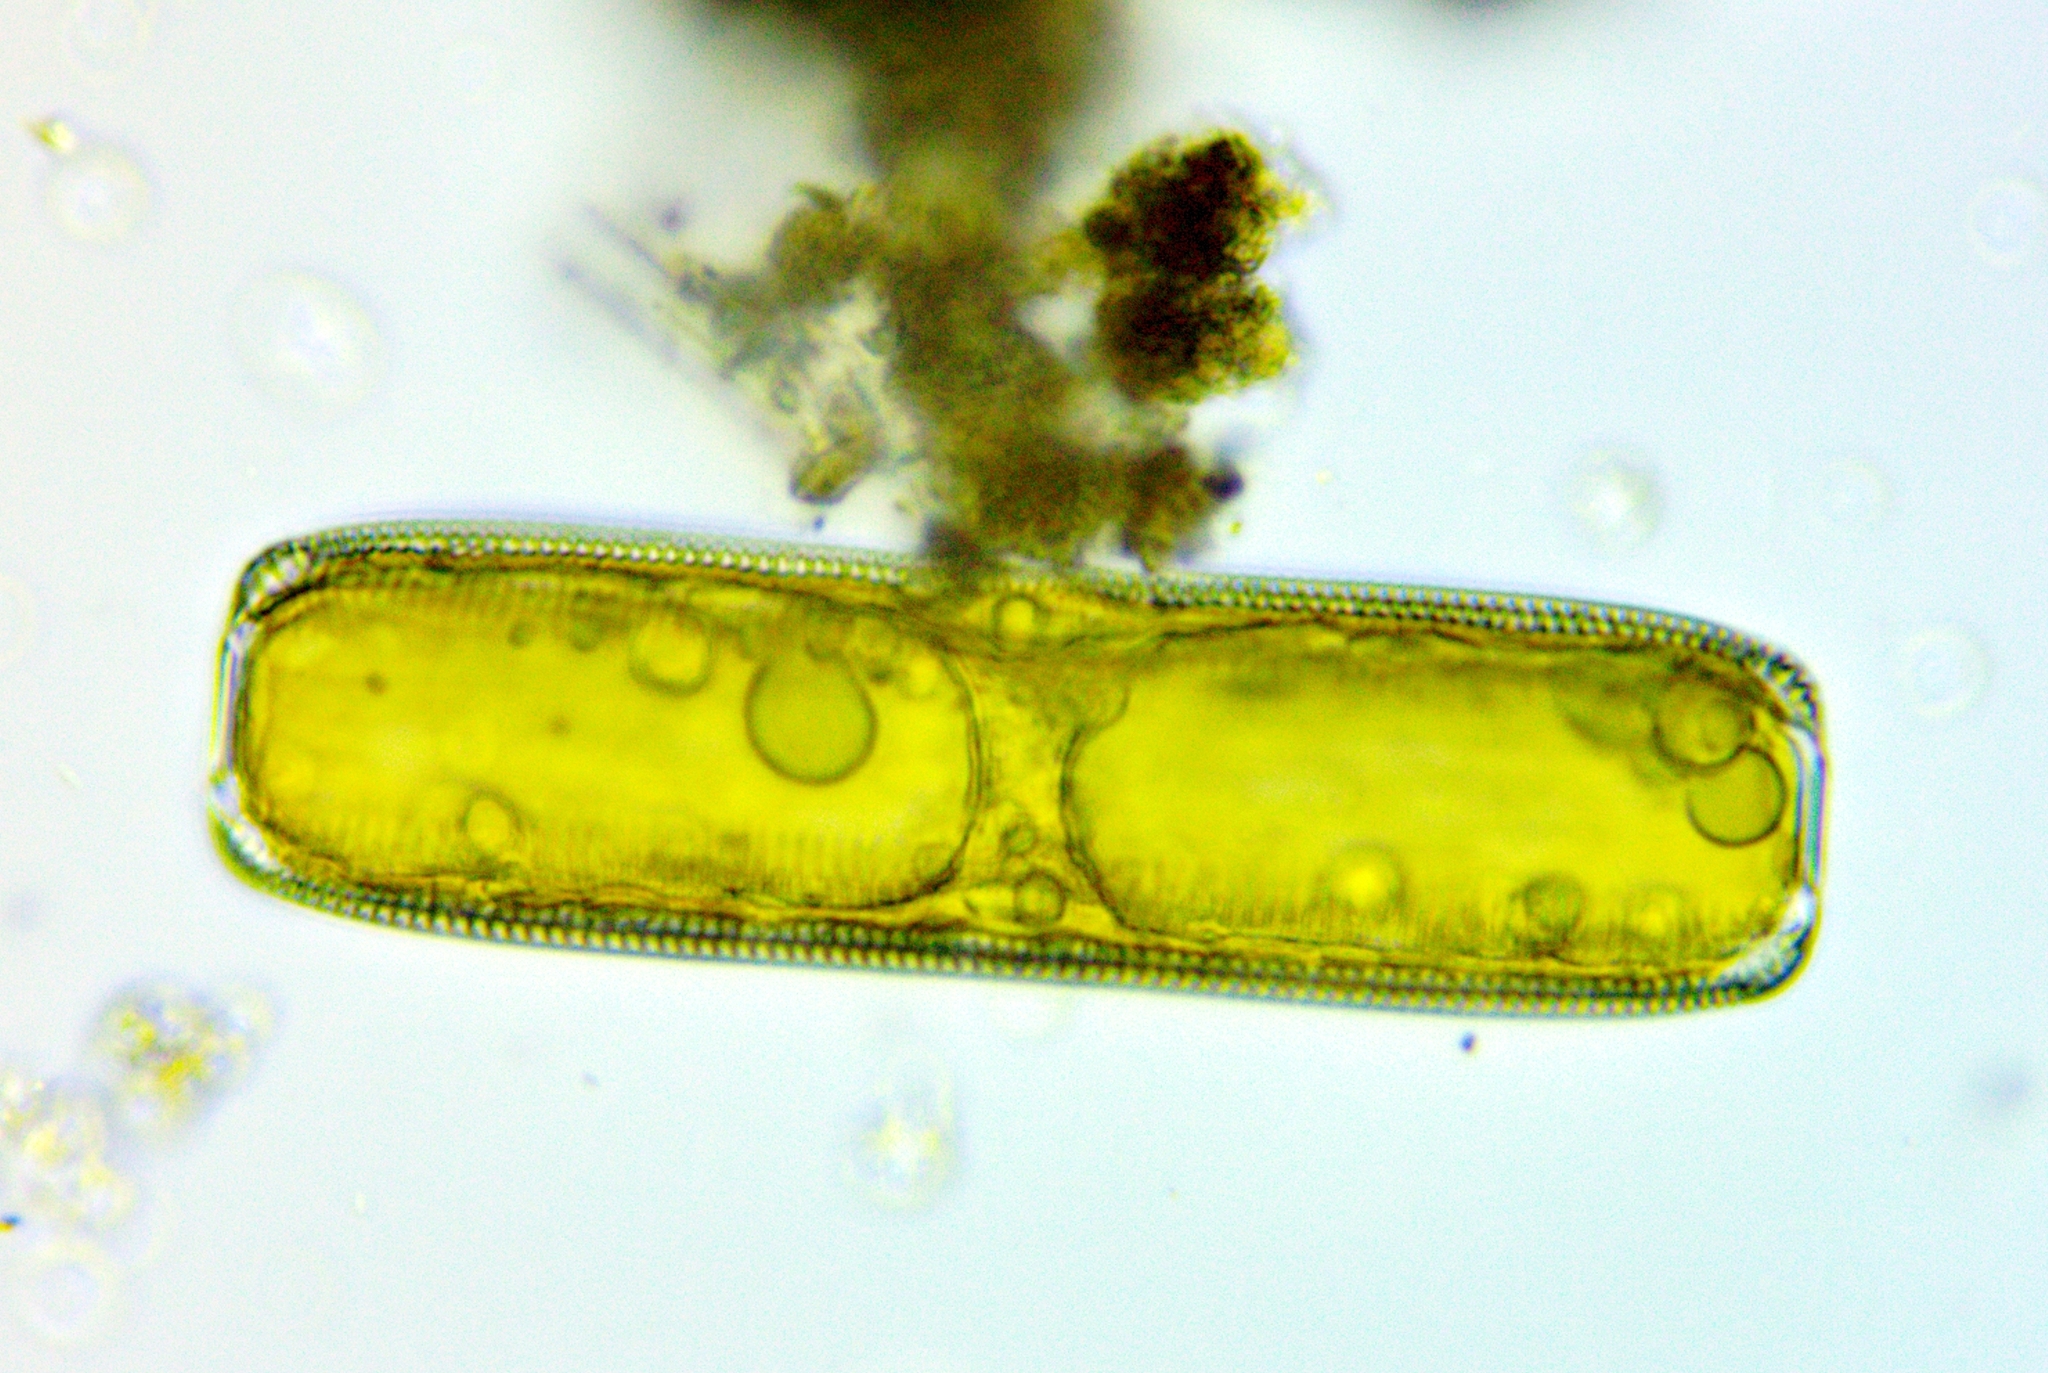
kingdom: Chromista
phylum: Ochrophyta
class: Bacillariophyceae
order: Naviculales
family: Pinnulariaceae
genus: Pinnularia
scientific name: Pinnularia
